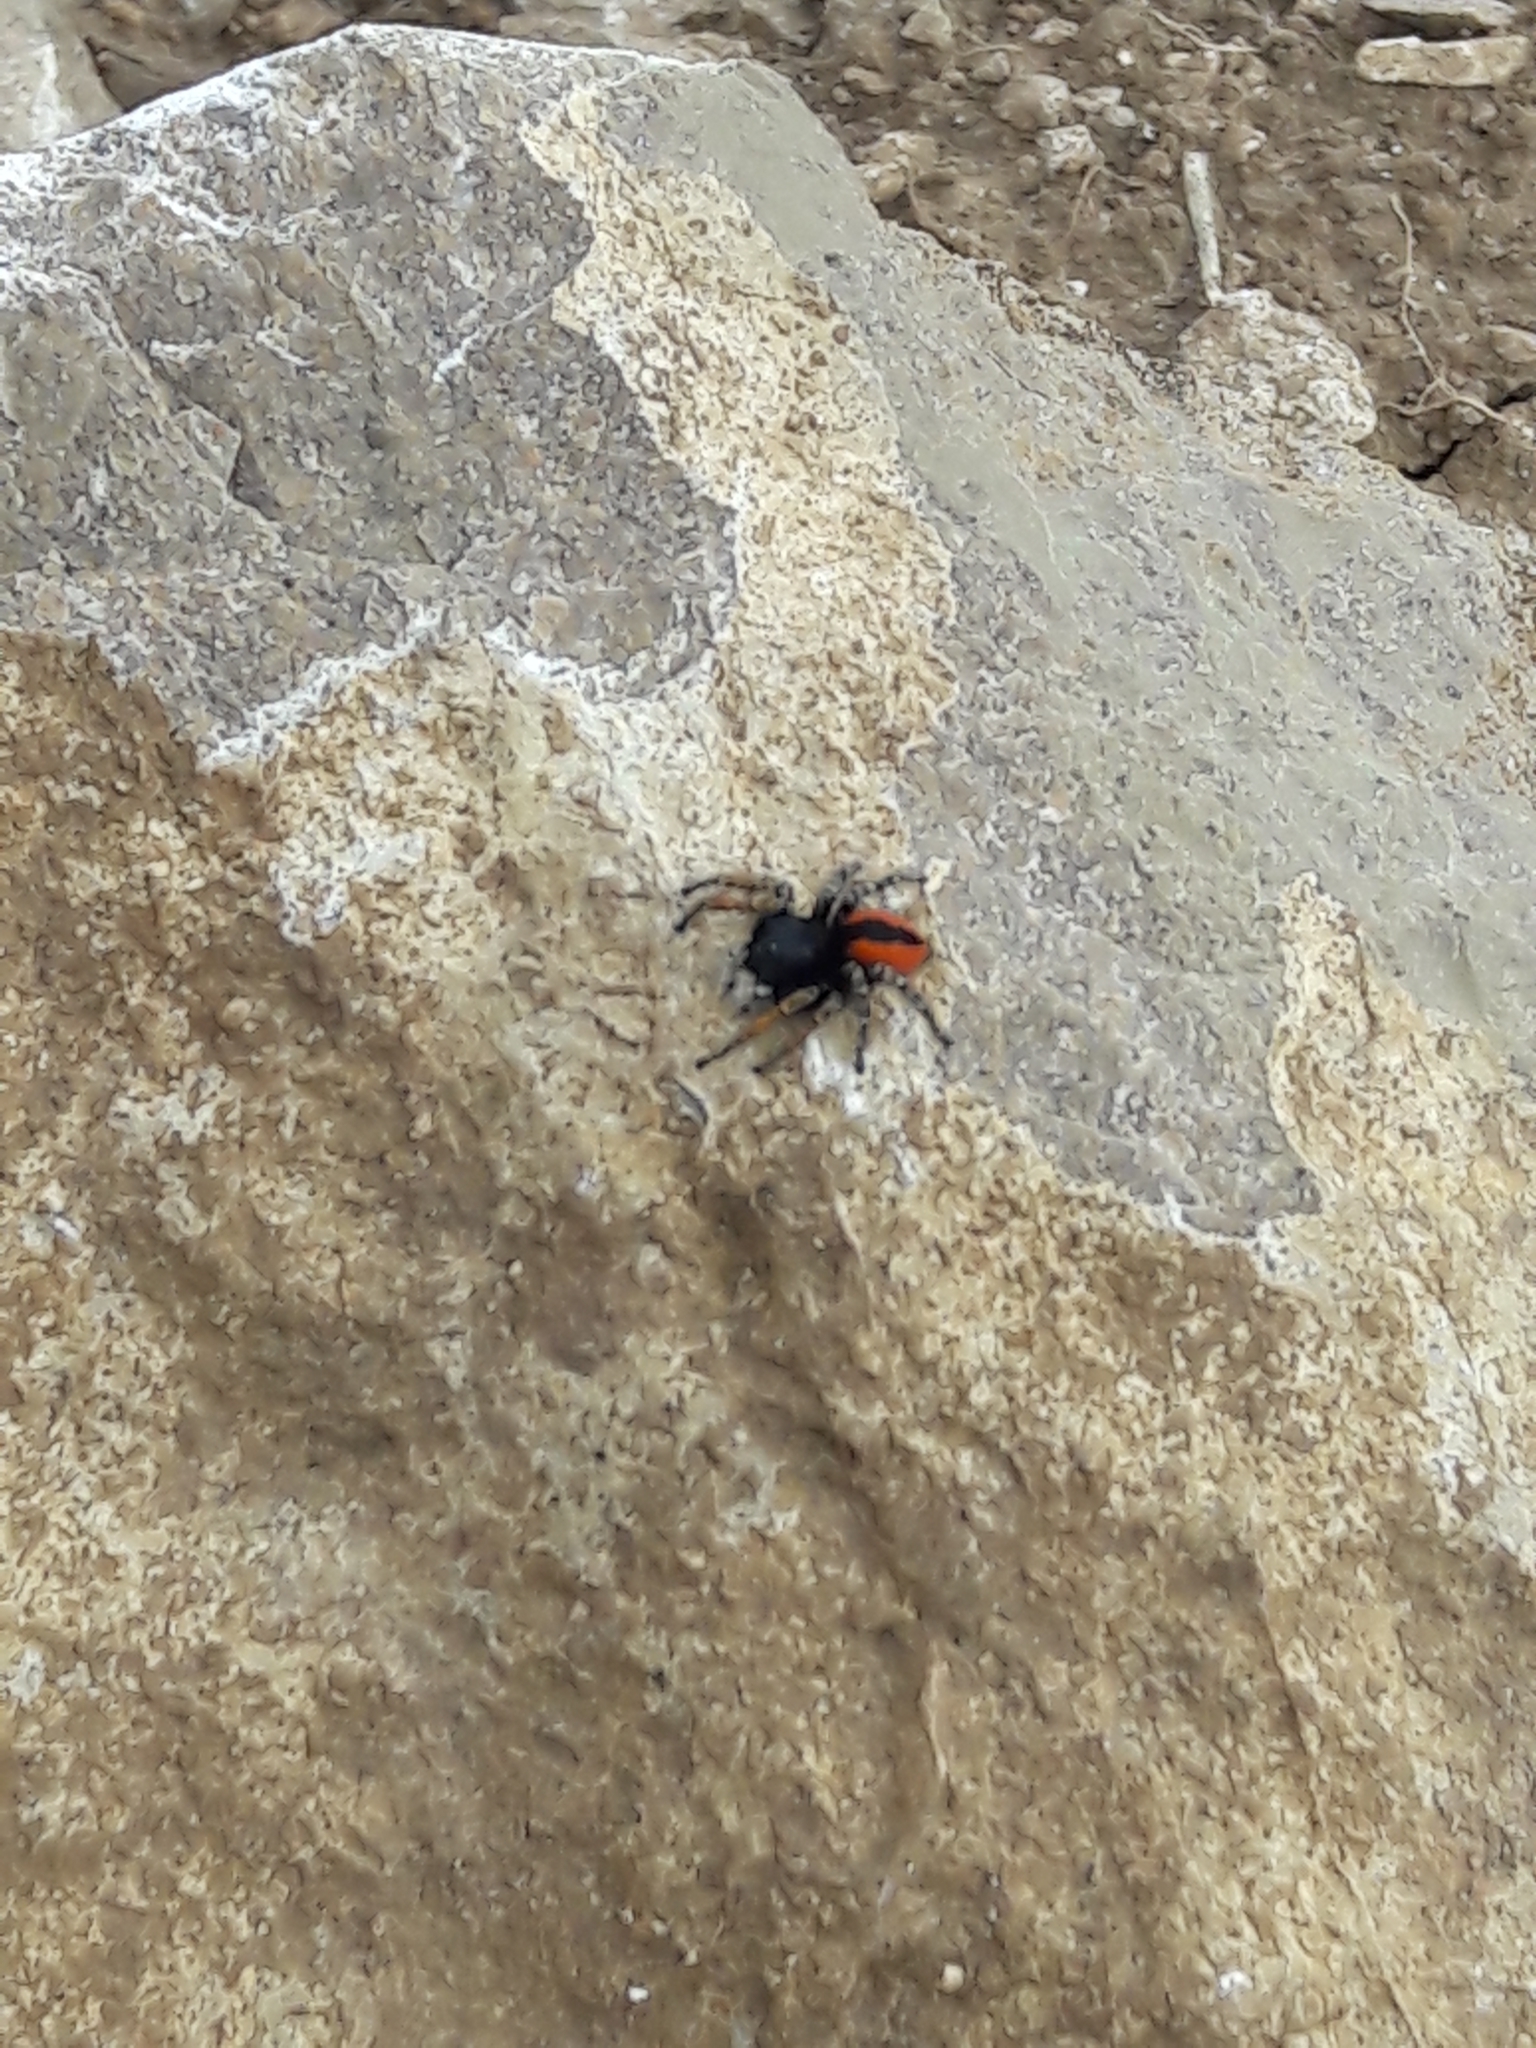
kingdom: Animalia
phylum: Arthropoda
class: Arachnida
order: Araneae
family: Salticidae
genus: Philaeus
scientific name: Philaeus chrysops
